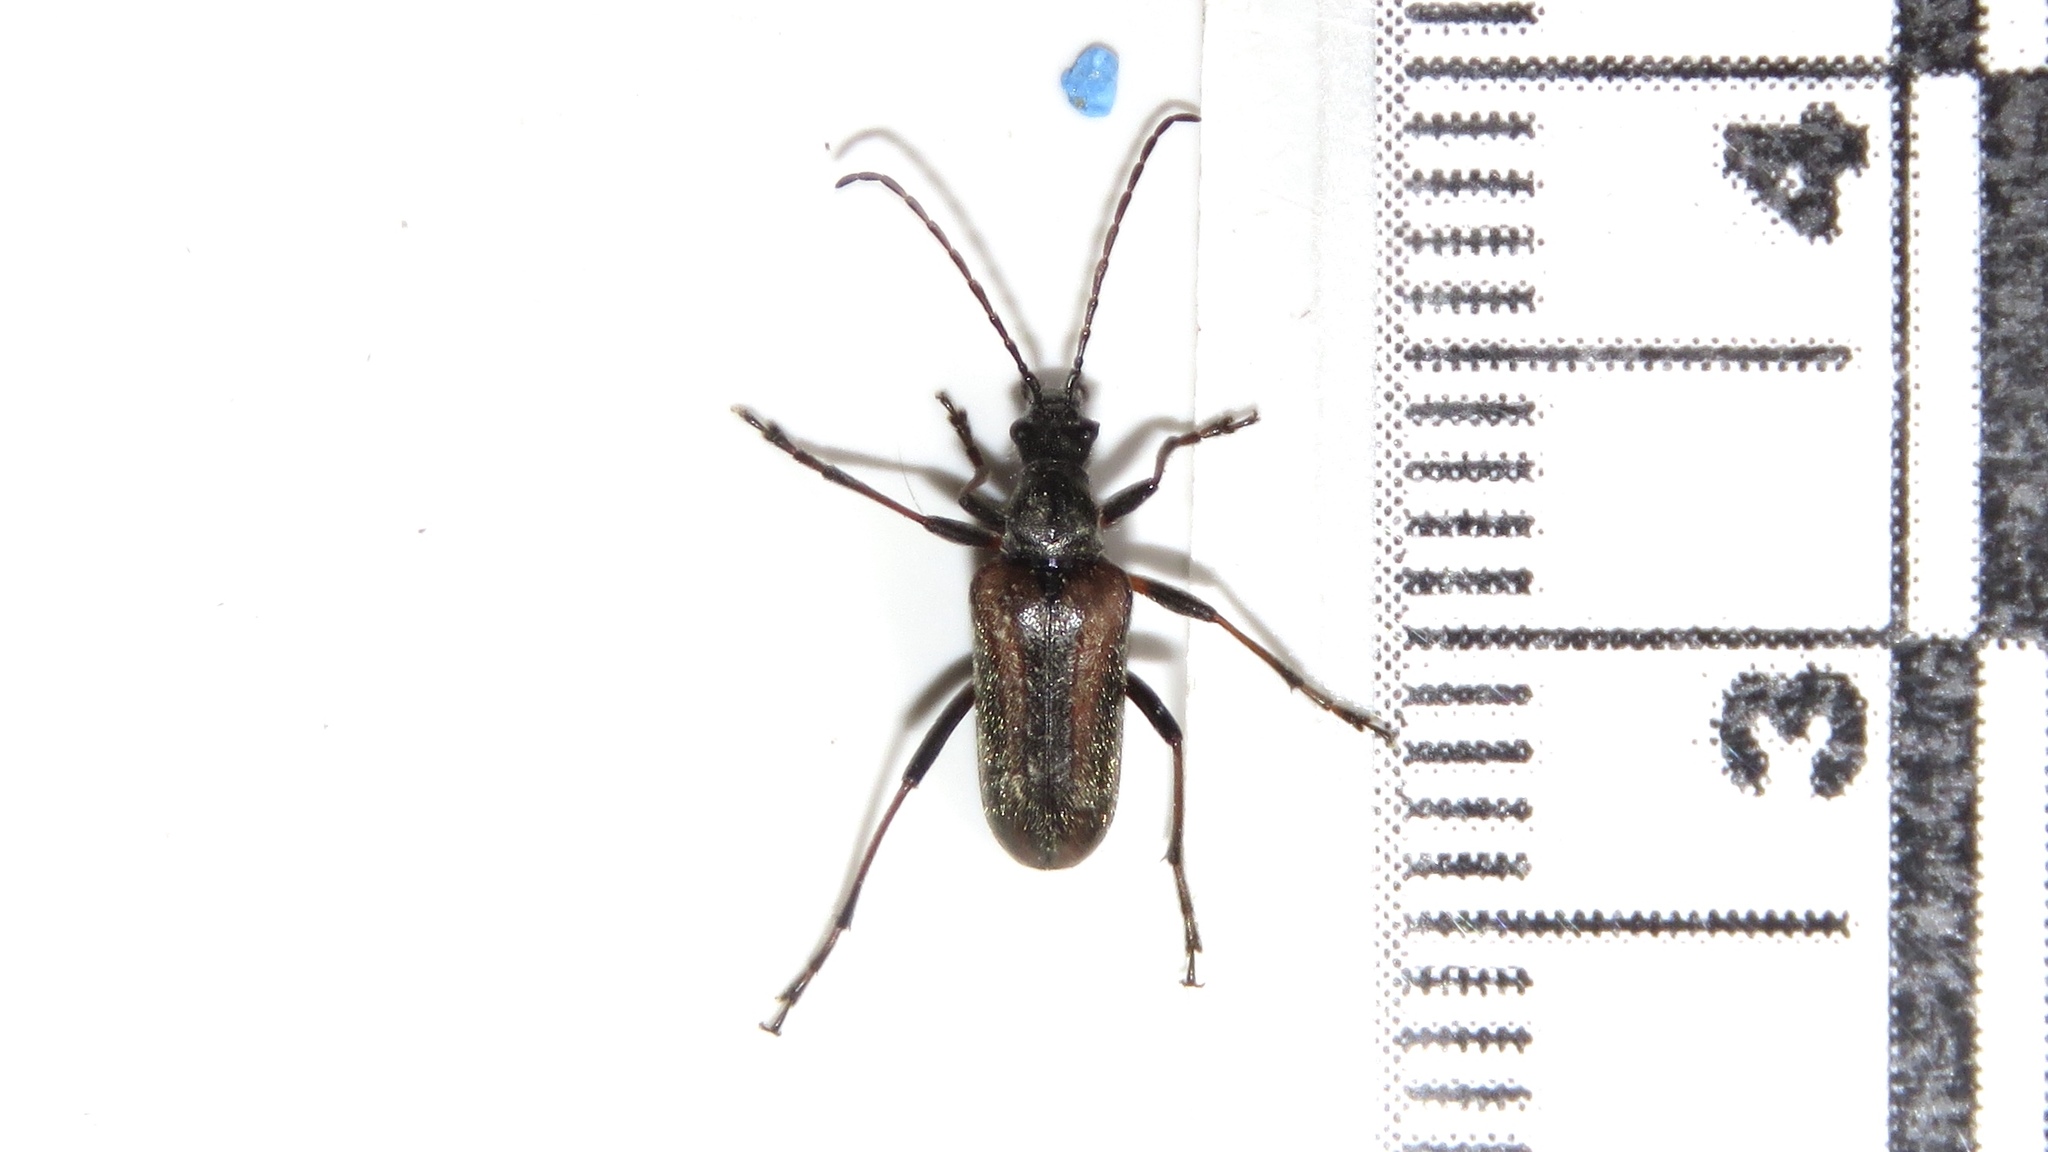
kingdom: Animalia
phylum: Arthropoda
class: Insecta
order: Coleoptera
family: Cerambycidae
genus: Gnathacmaeops
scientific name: Gnathacmaeops pratensis
